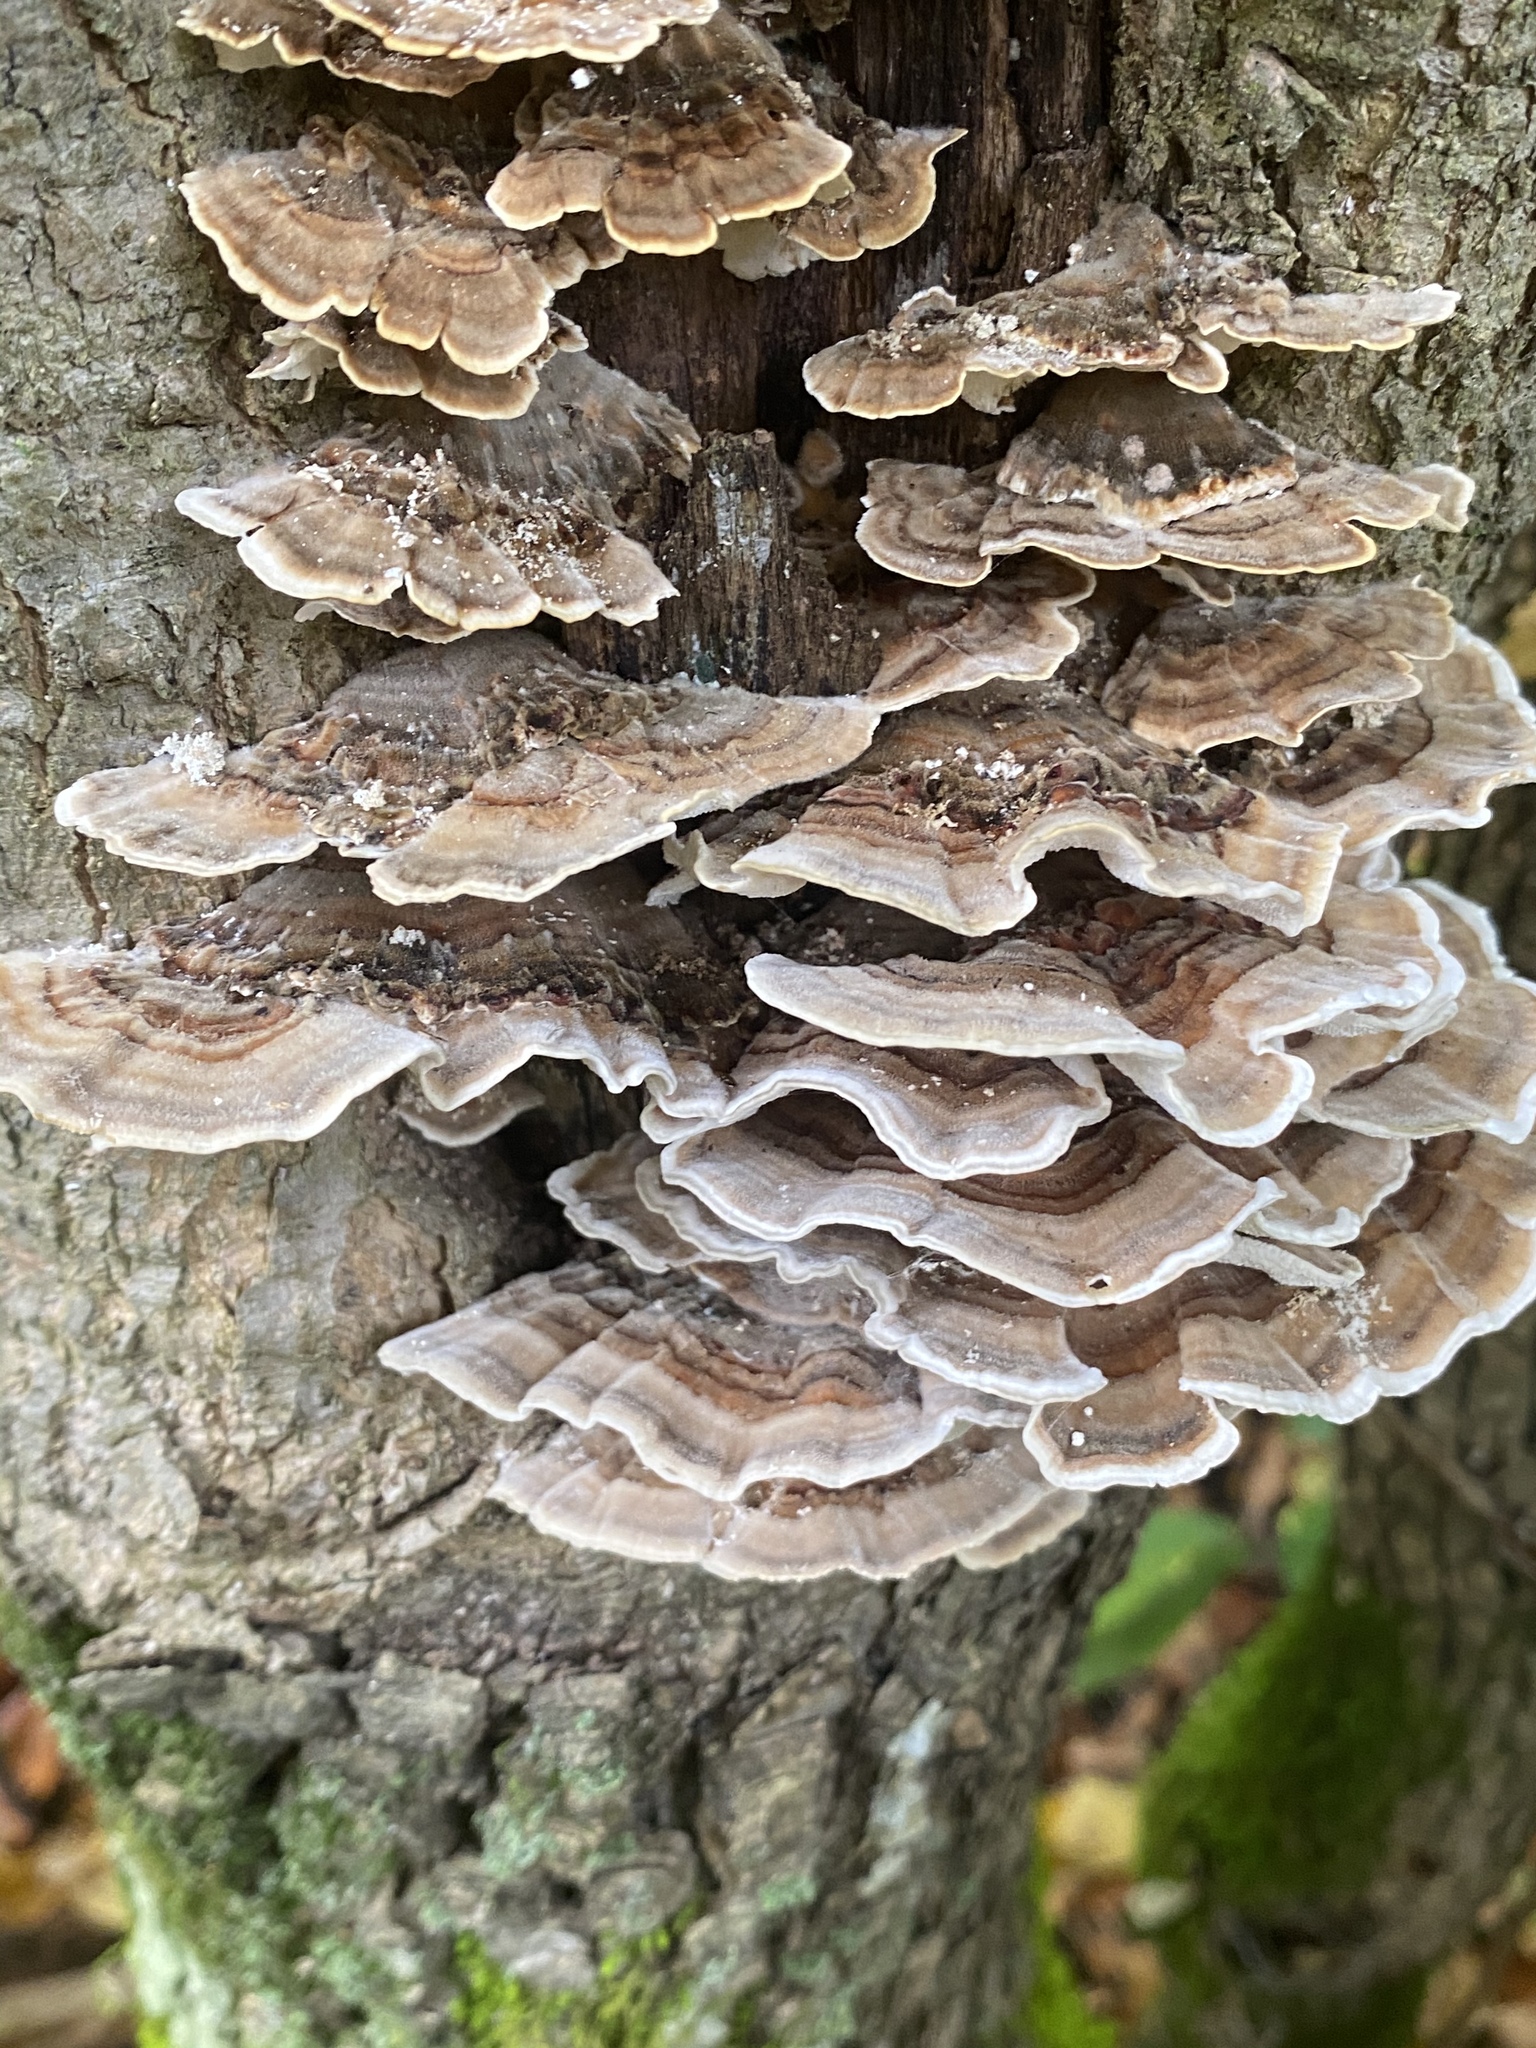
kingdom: Fungi
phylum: Basidiomycota
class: Agaricomycetes
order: Polyporales
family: Polyporaceae
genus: Trametes
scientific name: Trametes versicolor
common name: Turkeytail
